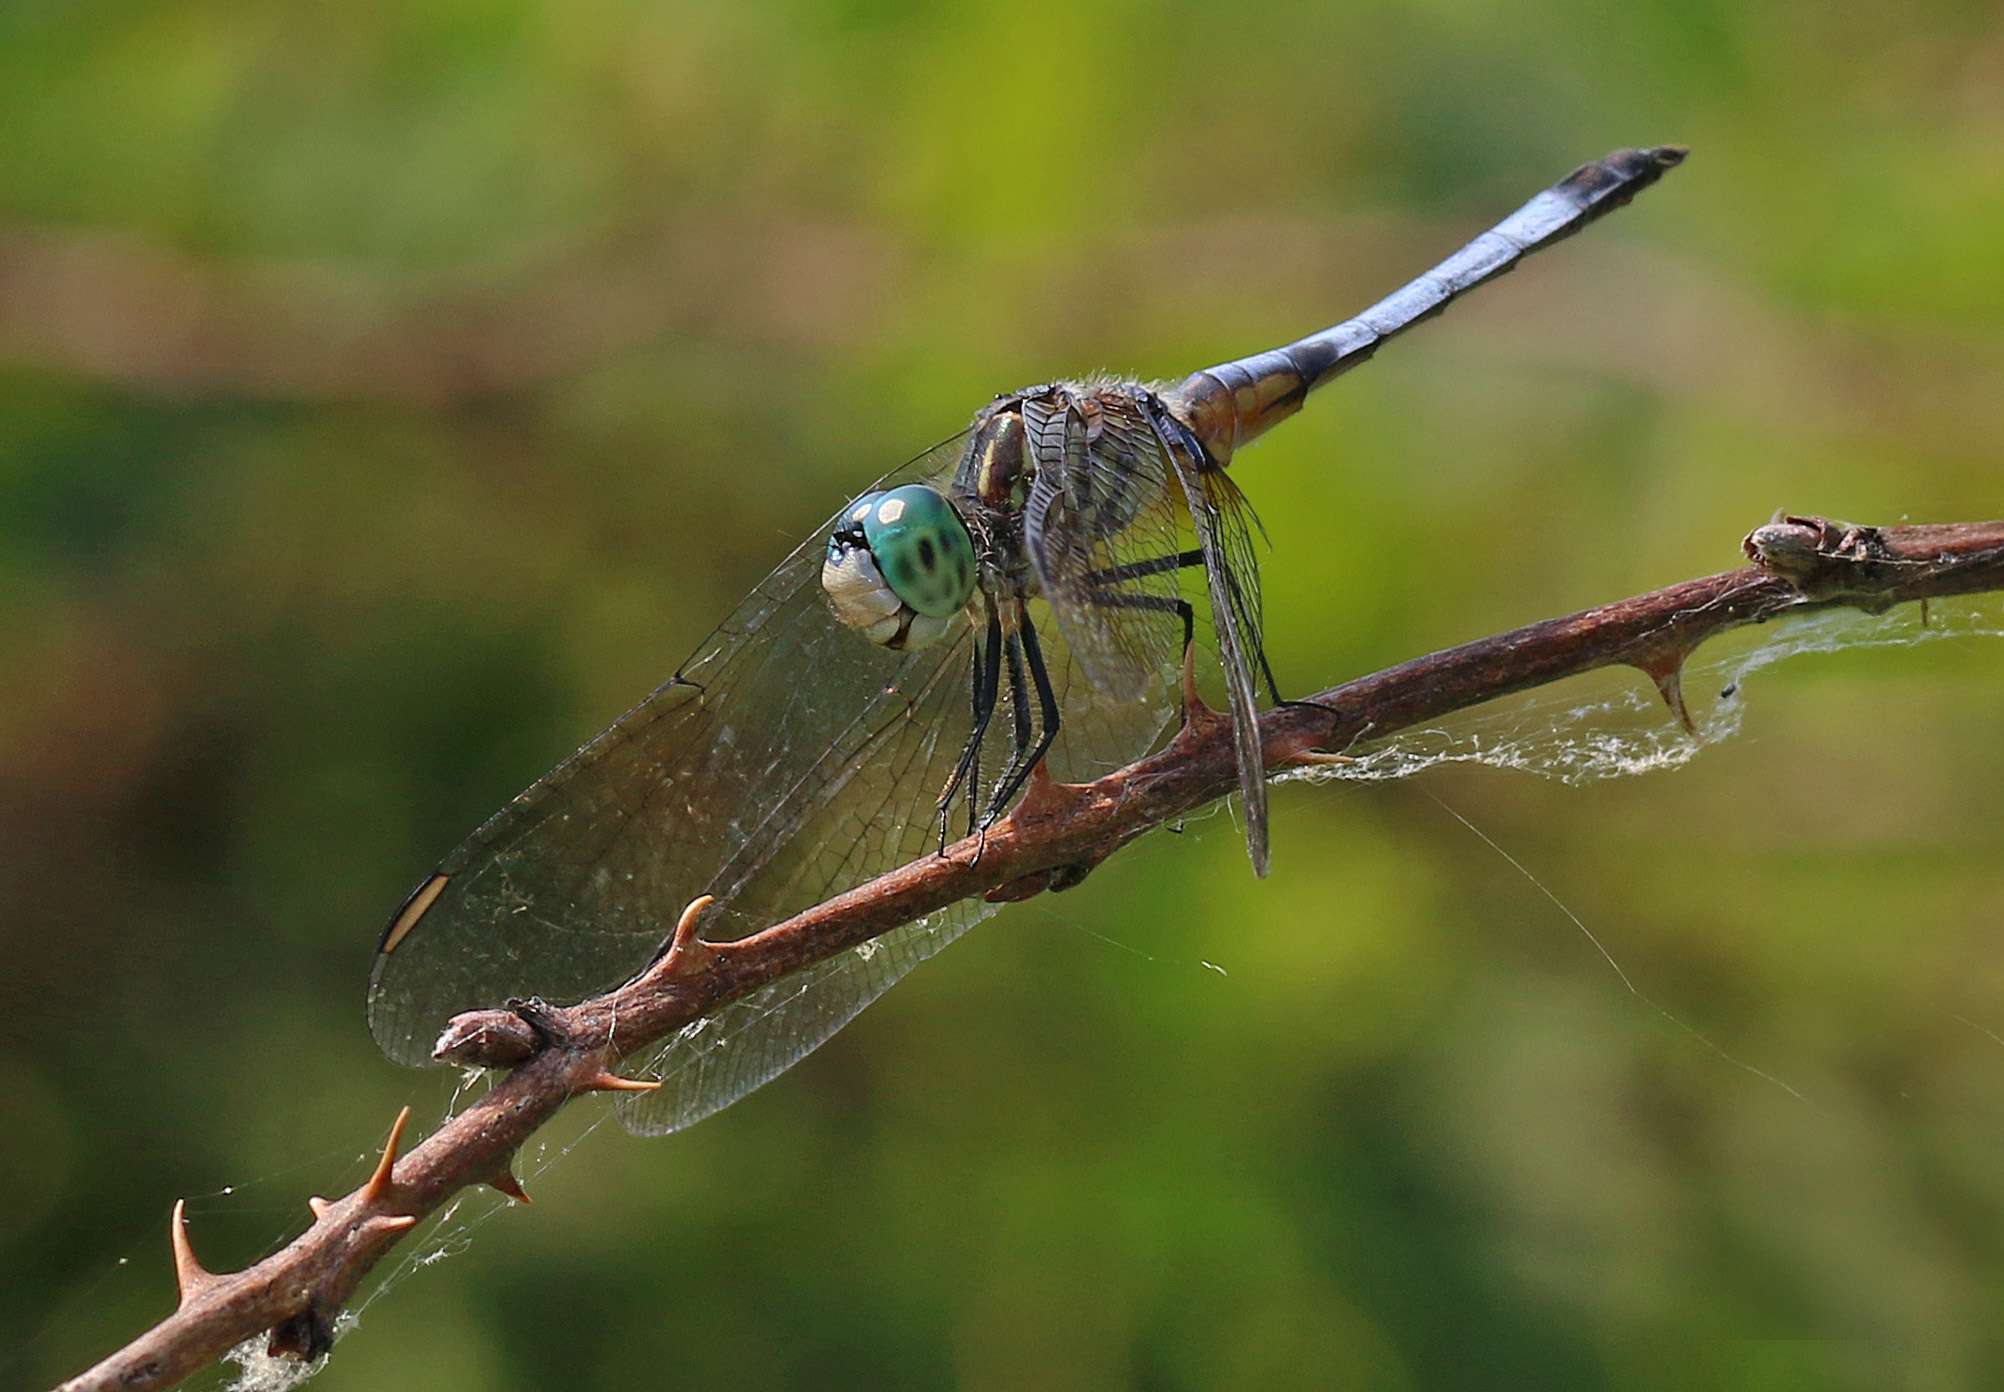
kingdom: Animalia
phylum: Arthropoda
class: Insecta
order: Odonata
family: Libellulidae
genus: Pachydiplax
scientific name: Pachydiplax longipennis
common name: Blue dasher
